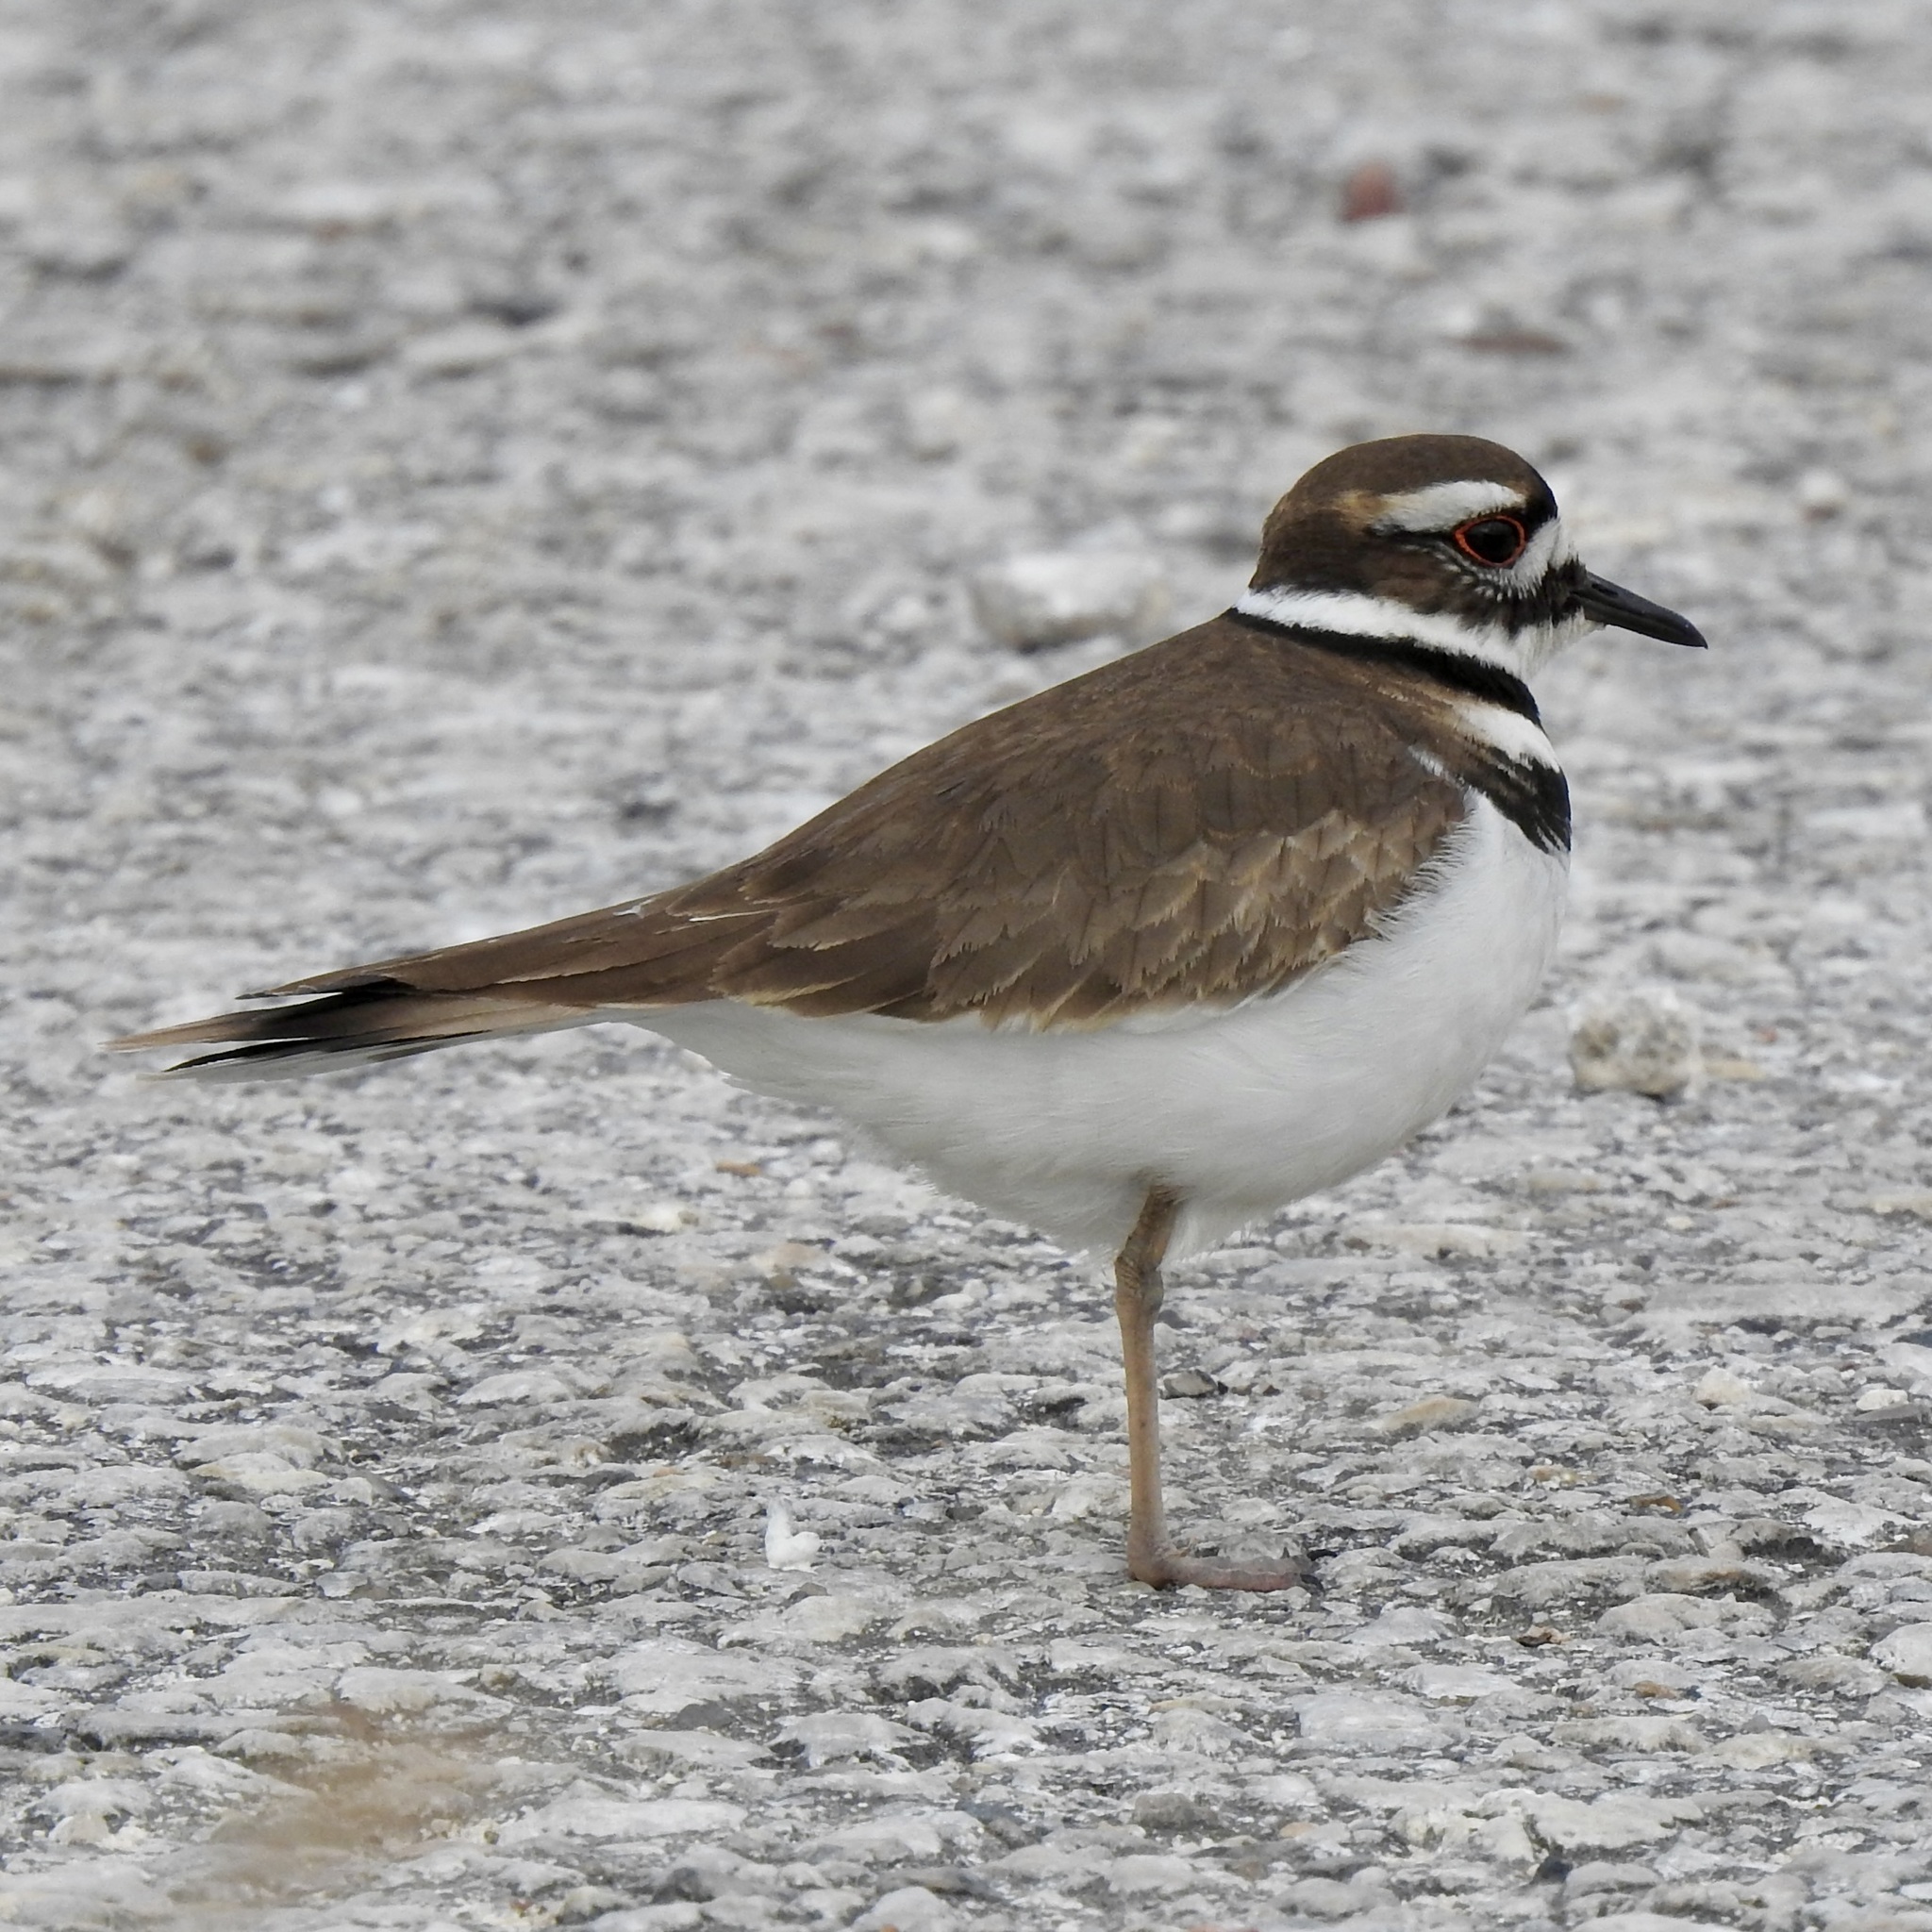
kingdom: Animalia
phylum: Chordata
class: Aves
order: Charadriiformes
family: Charadriidae
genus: Charadrius
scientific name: Charadrius vociferus
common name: Killdeer
